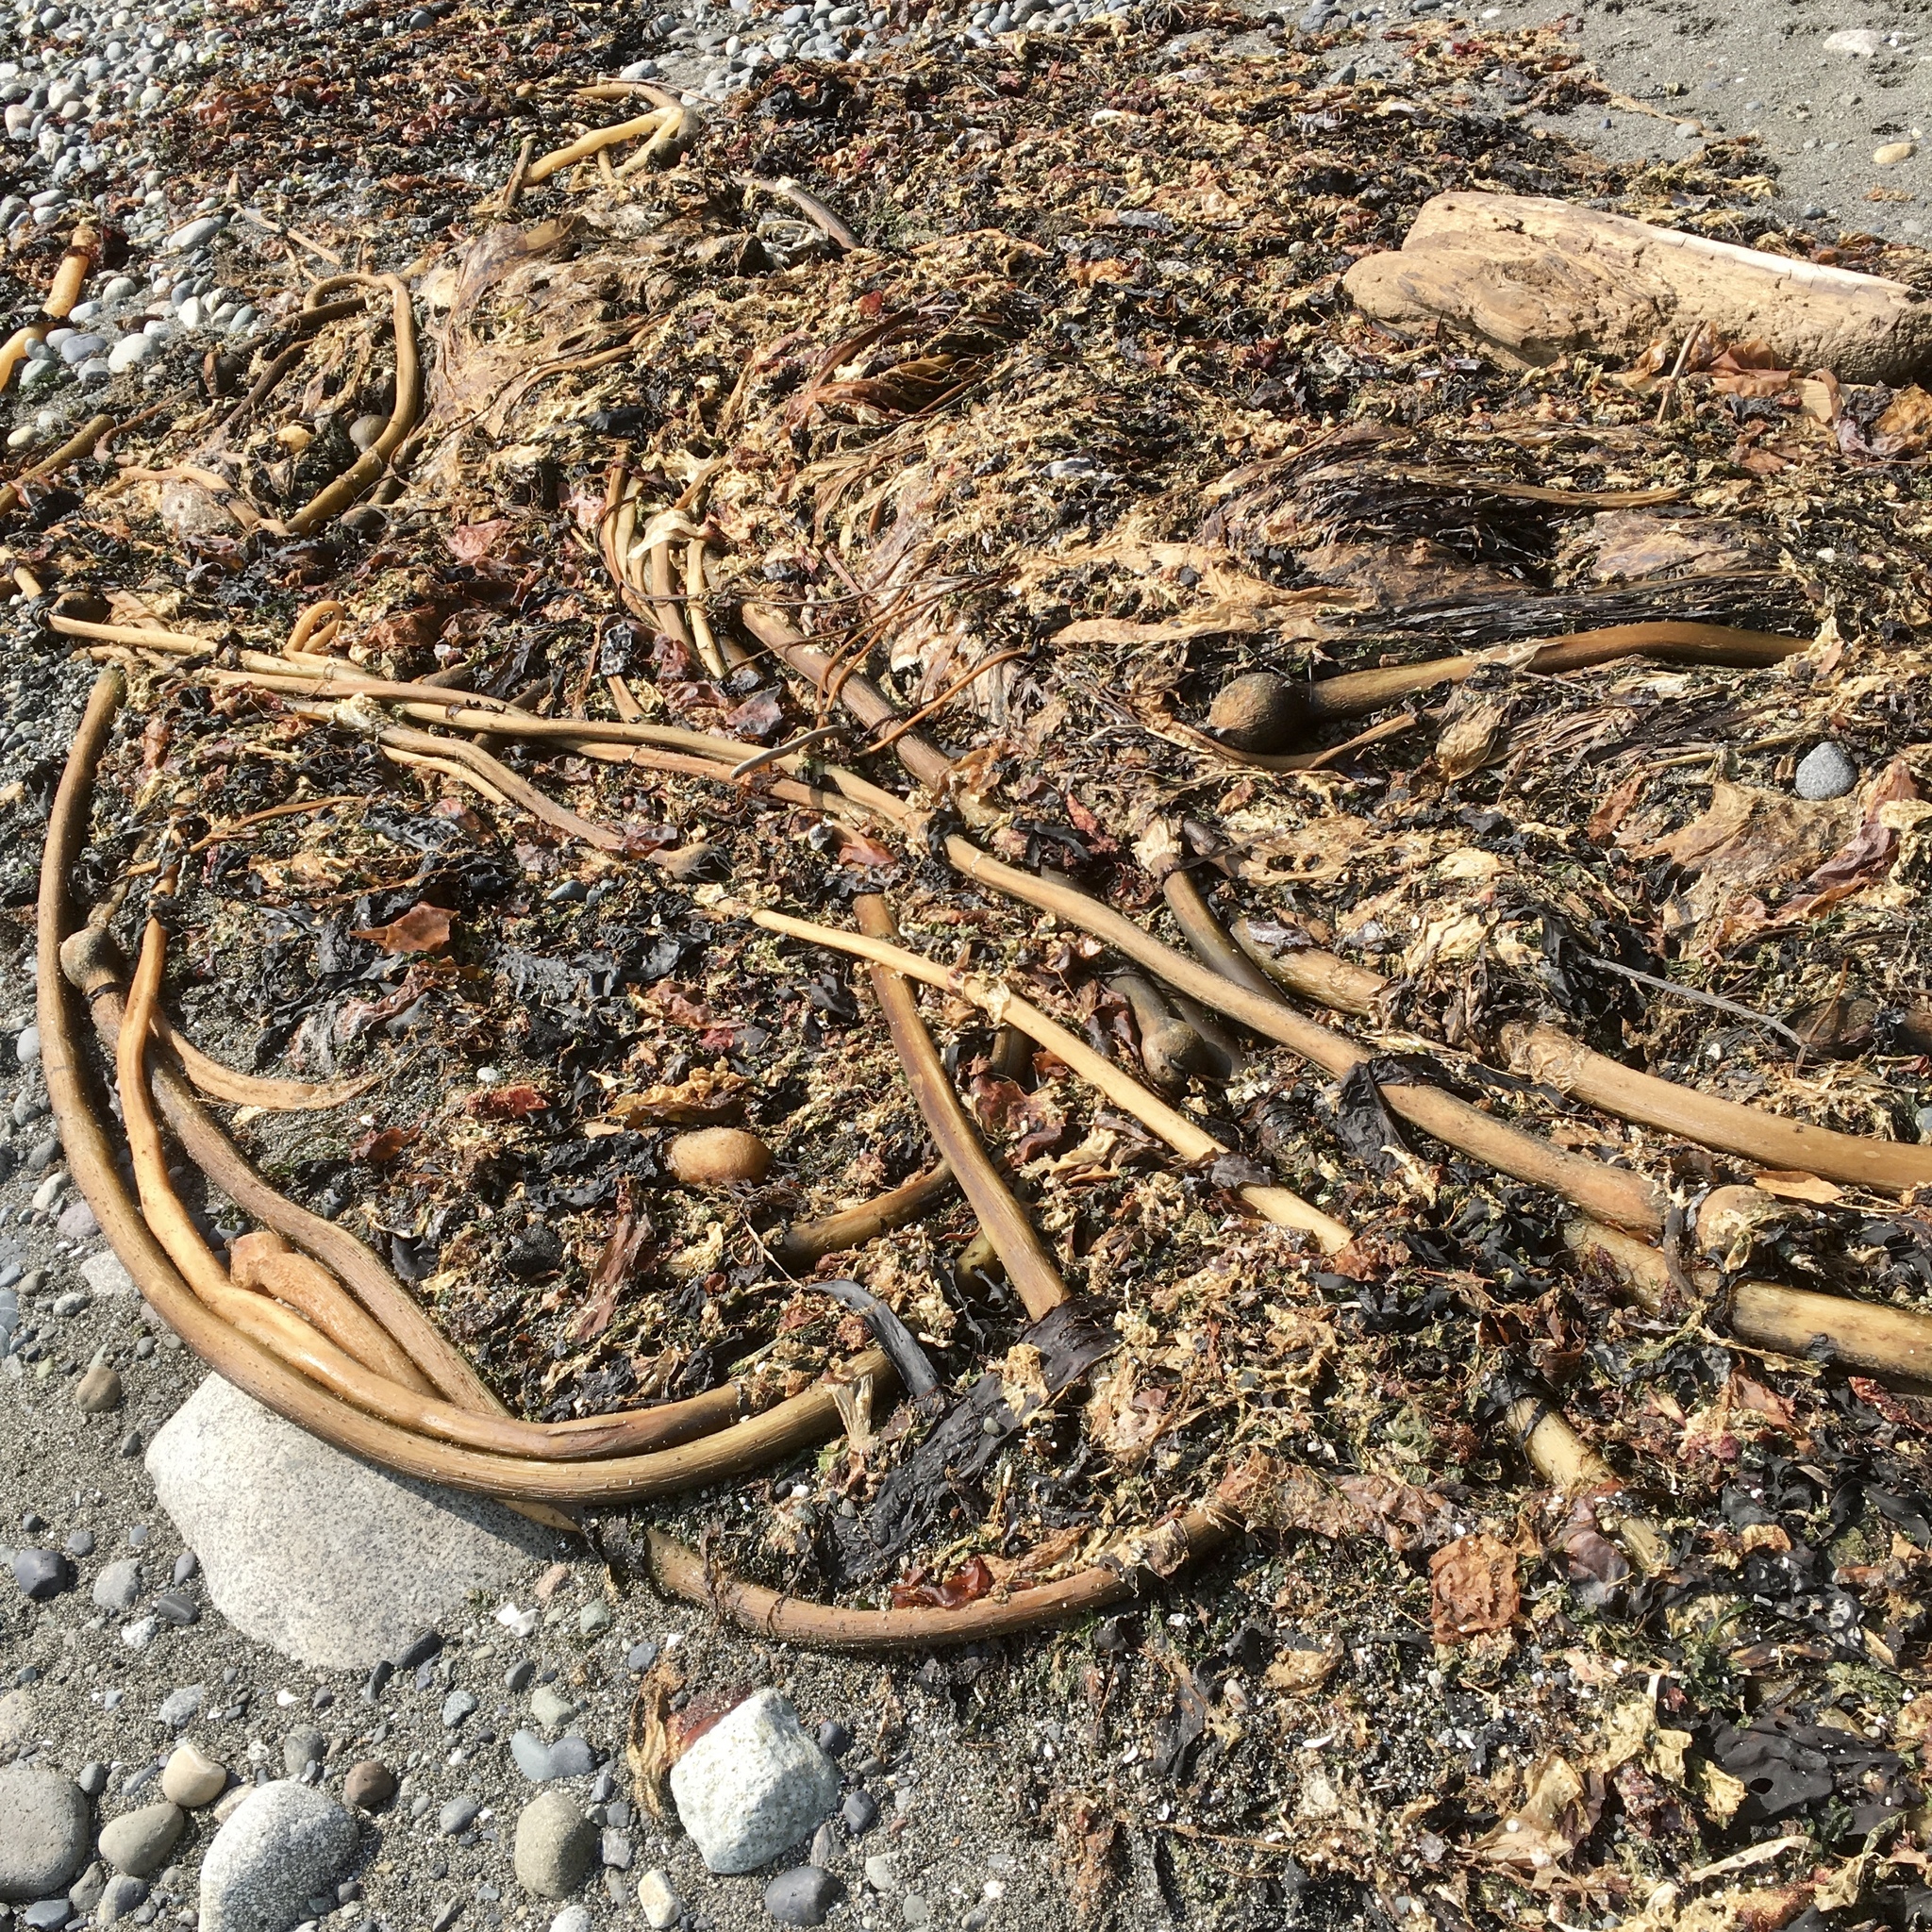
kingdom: Chromista
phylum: Ochrophyta
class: Phaeophyceae
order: Laminariales
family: Laminariaceae
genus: Nereocystis
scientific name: Nereocystis luetkeana
